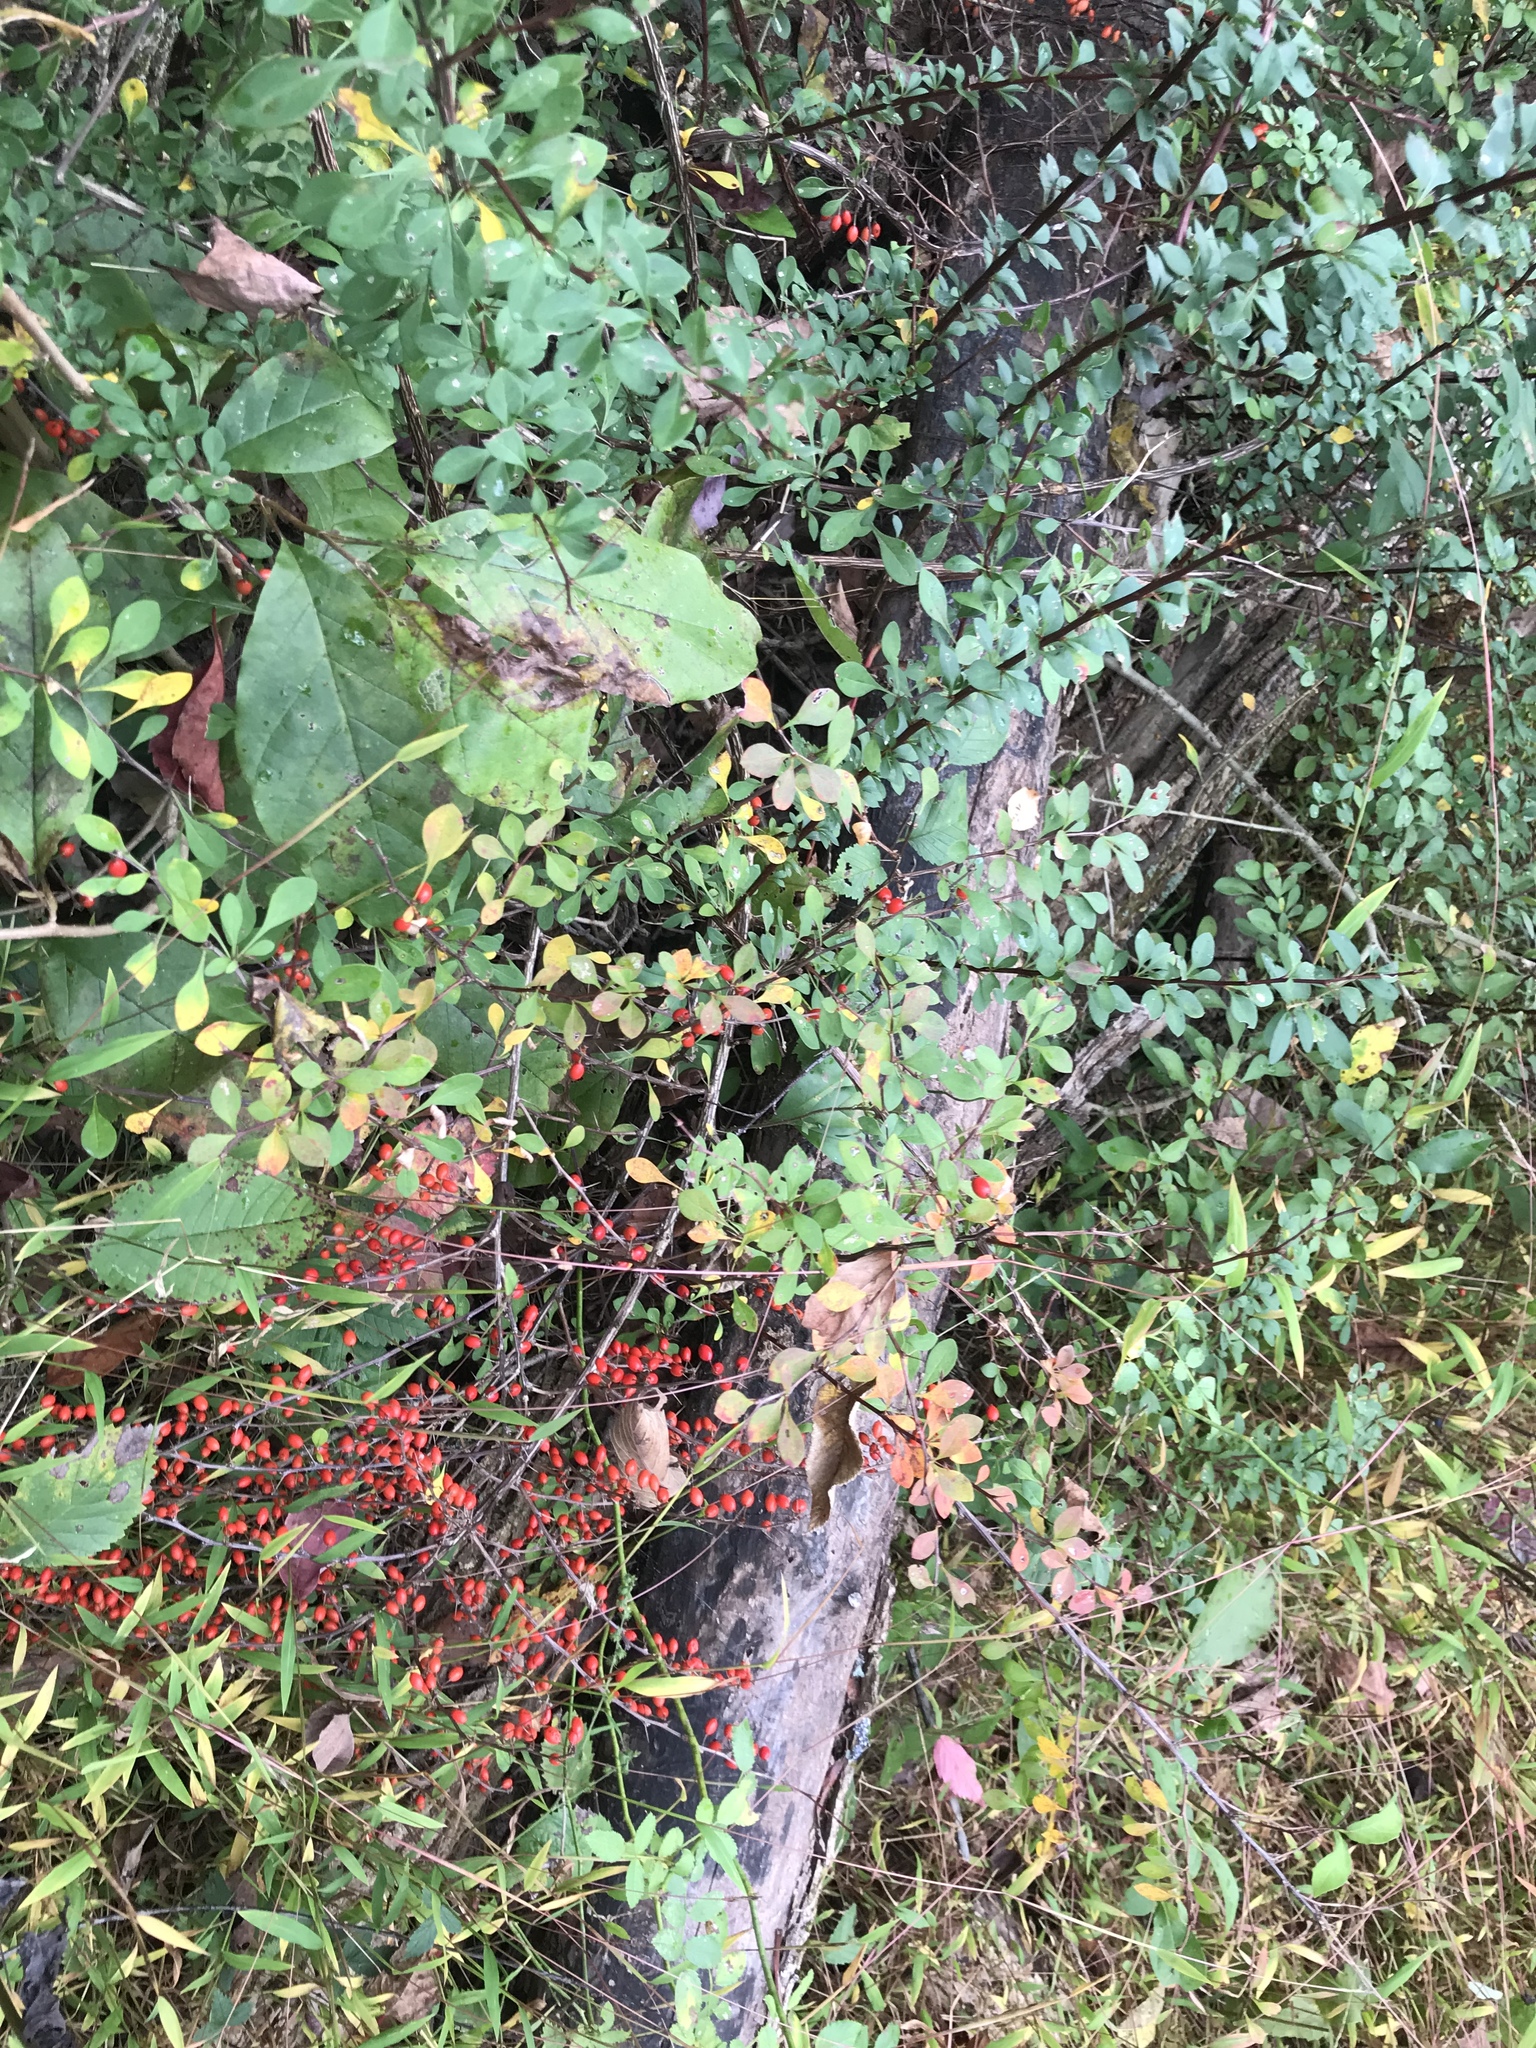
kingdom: Plantae
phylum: Tracheophyta
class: Magnoliopsida
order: Ranunculales
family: Berberidaceae
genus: Berberis
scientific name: Berberis thunbergii
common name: Japanese barberry
